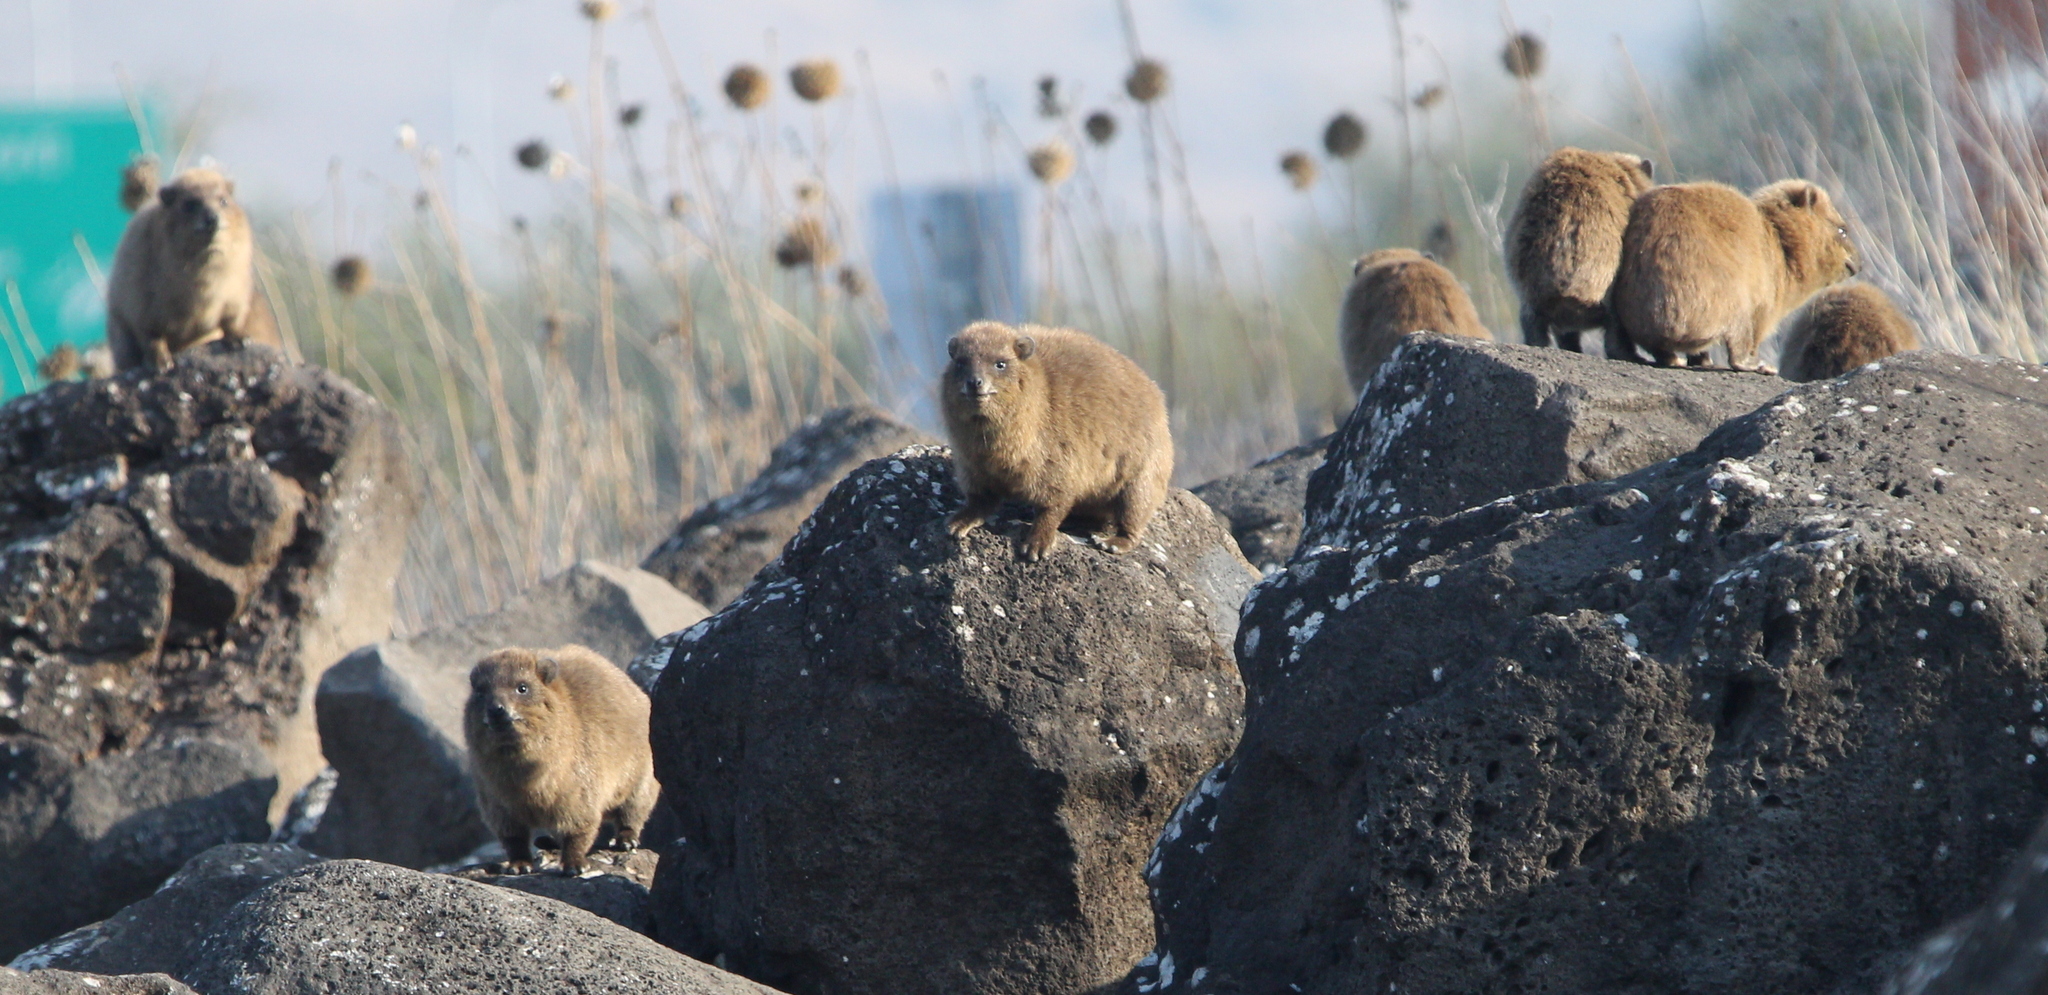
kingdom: Animalia
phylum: Chordata
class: Mammalia
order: Hyracoidea
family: Procaviidae
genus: Procavia
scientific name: Procavia capensis
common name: Rock hyrax
